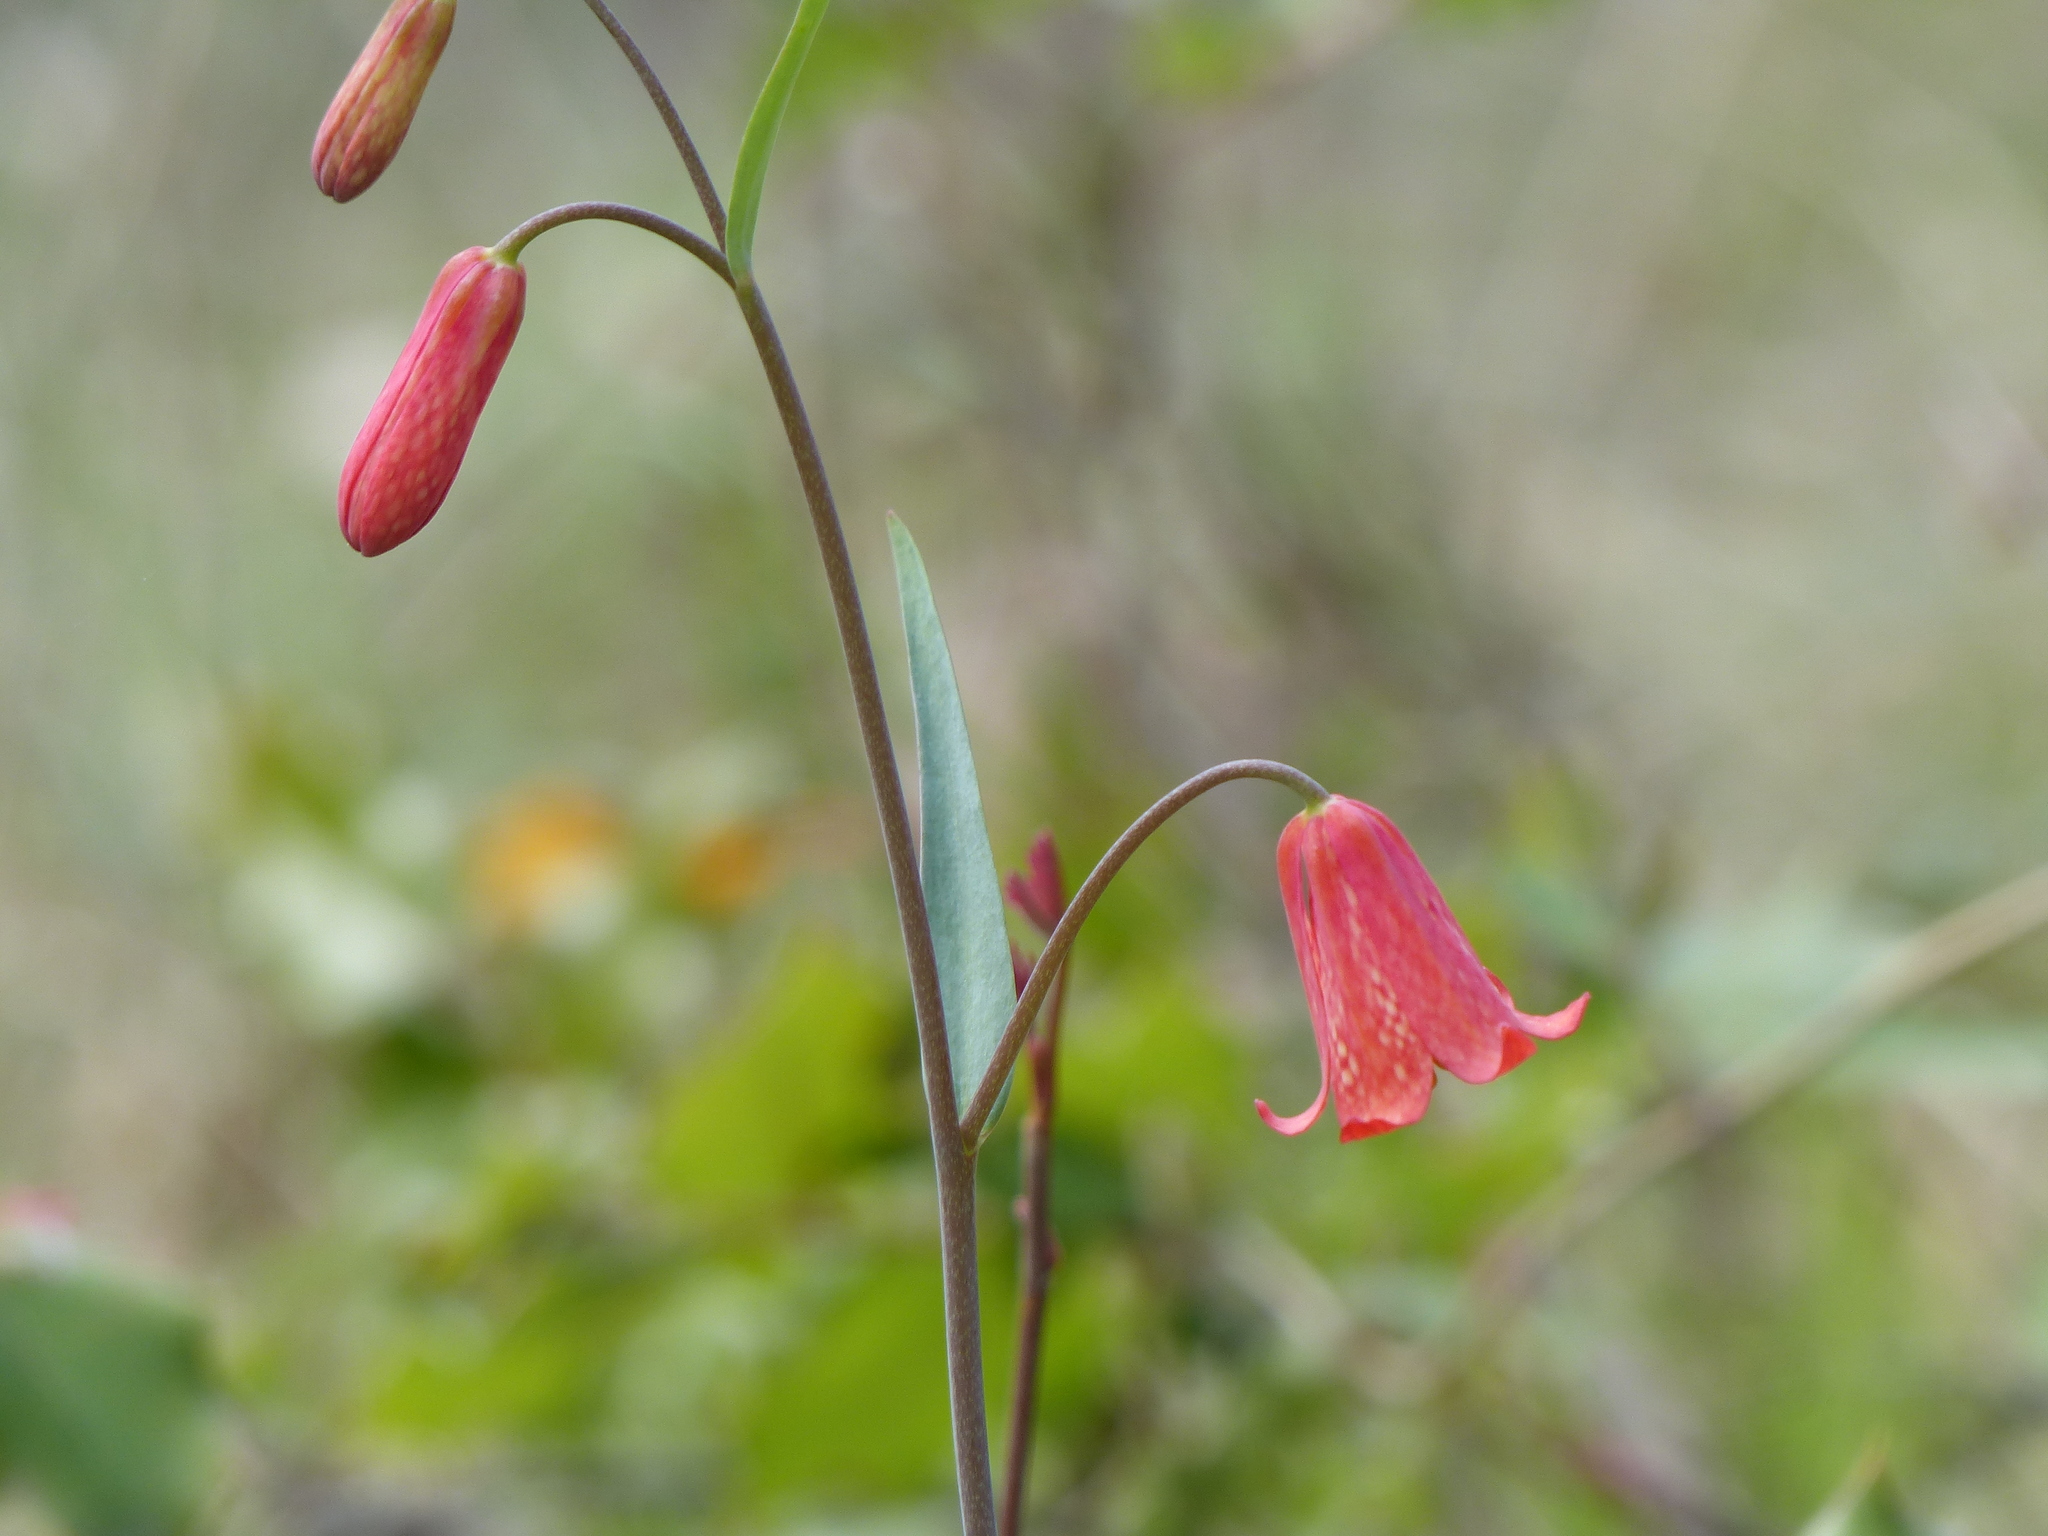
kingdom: Plantae
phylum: Tracheophyta
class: Liliopsida
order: Liliales
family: Liliaceae
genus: Fritillaria
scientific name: Fritillaria recurva
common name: Scarlet fritillary
